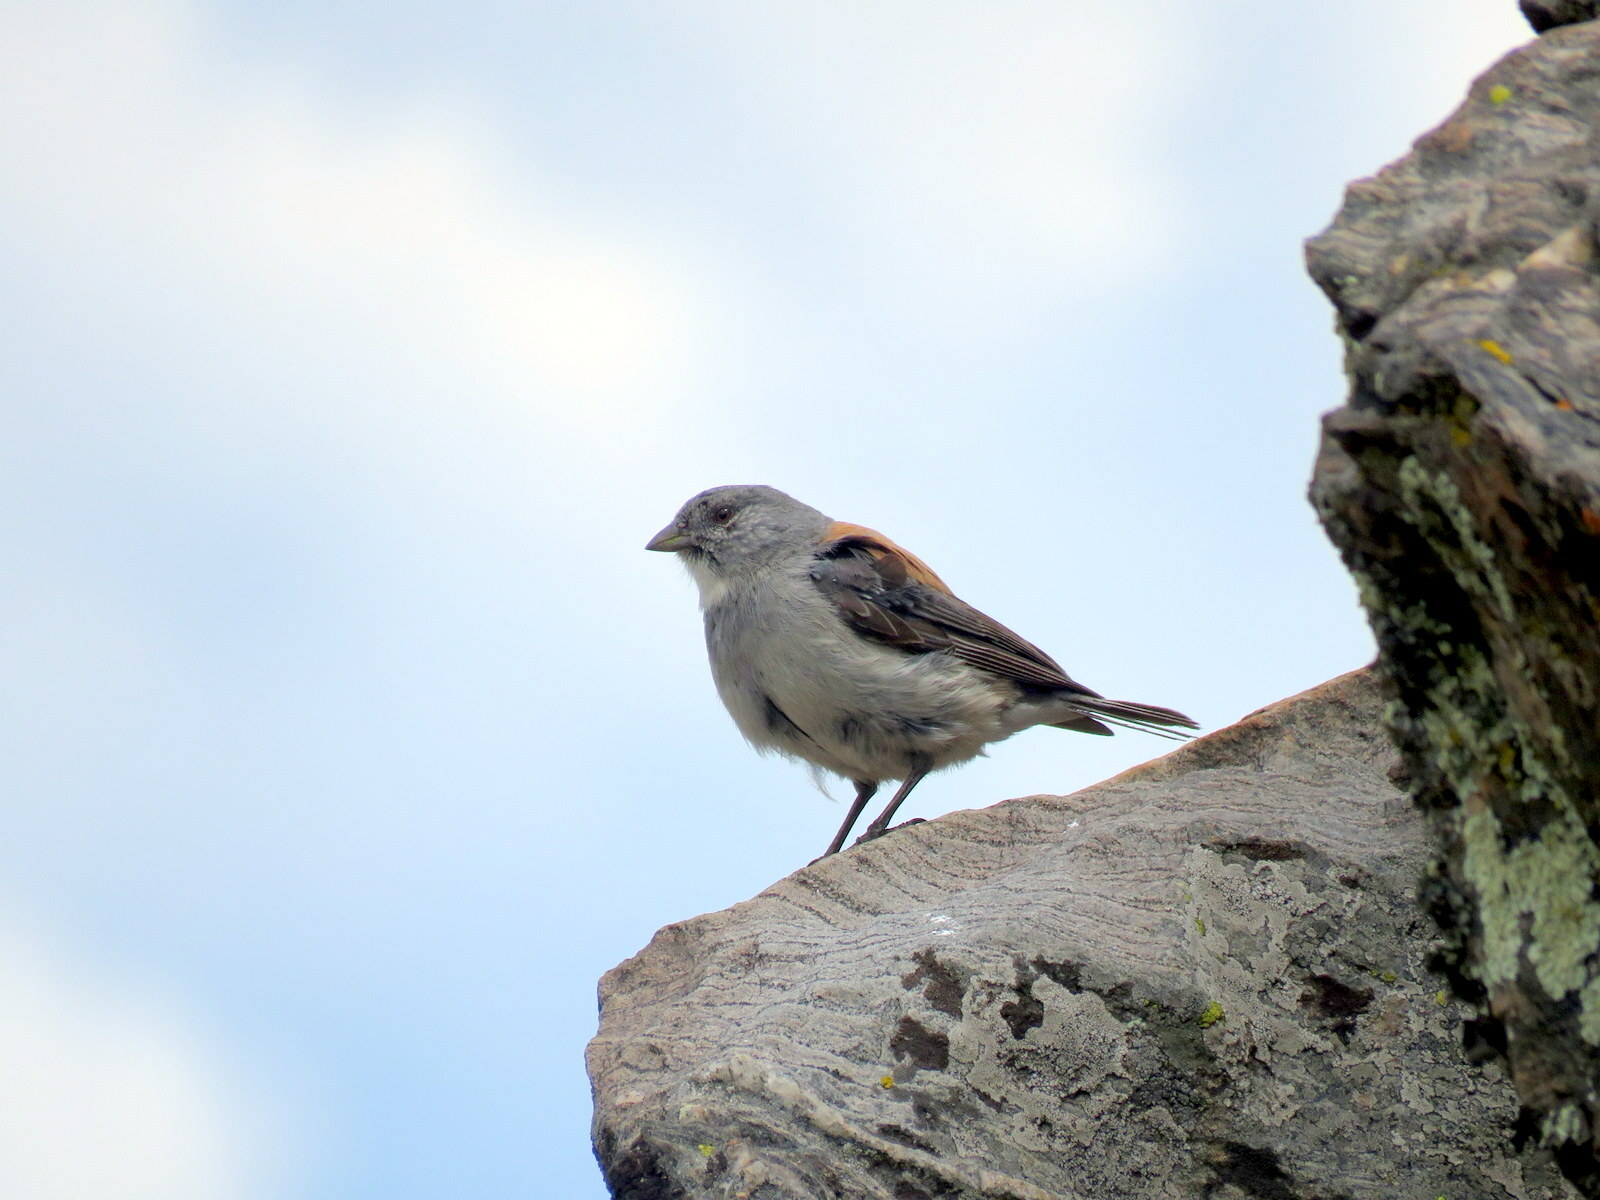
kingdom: Animalia
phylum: Chordata
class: Aves
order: Passeriformes
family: Thraupidae
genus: Idiopsar
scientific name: Idiopsar dorsalis
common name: Red-backed sierra finch
